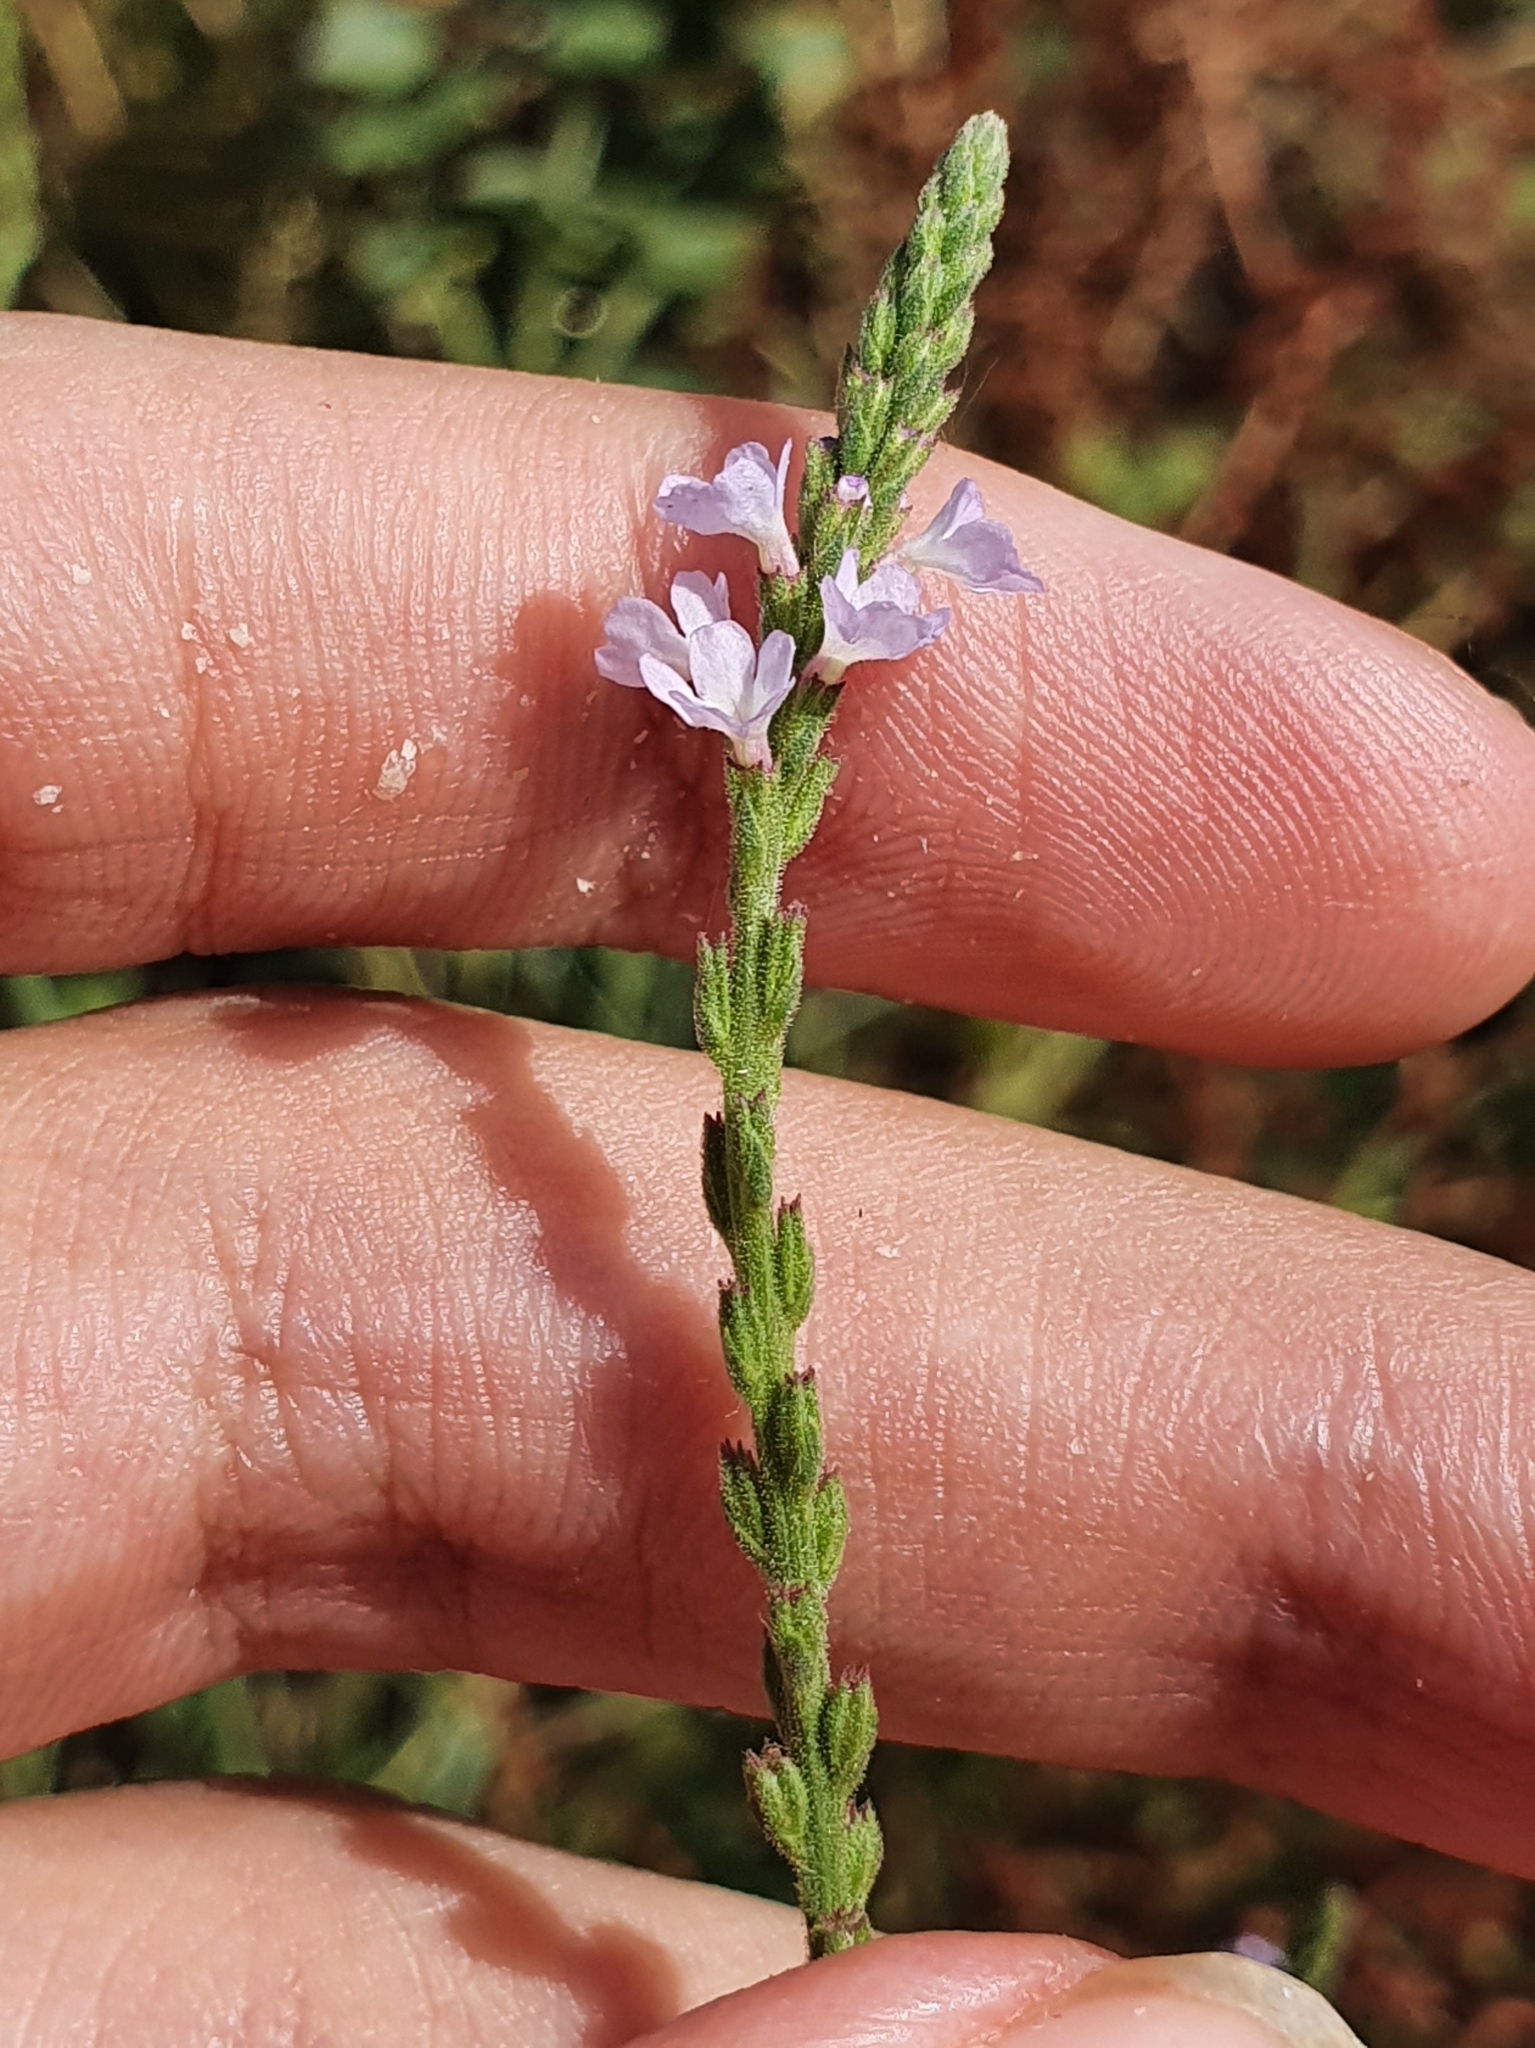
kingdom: Plantae
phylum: Tracheophyta
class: Magnoliopsida
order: Lamiales
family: Verbenaceae
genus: Verbena
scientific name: Verbena officinalis
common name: Vervain
